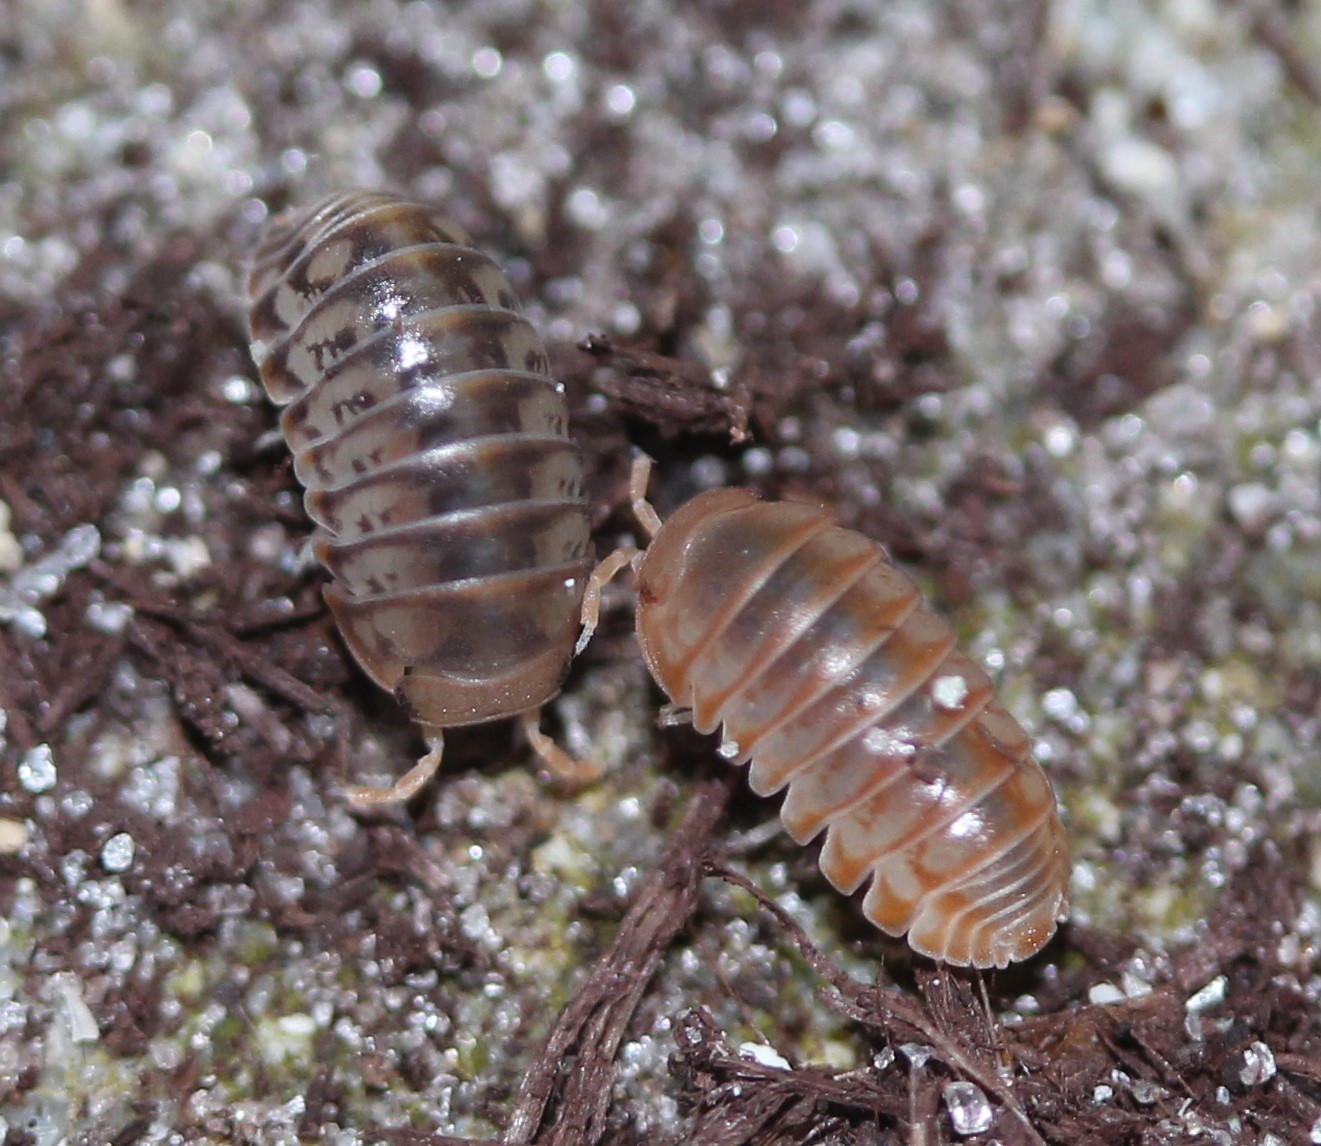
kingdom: Animalia
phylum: Arthropoda
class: Malacostraca
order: Isopoda
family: Armadillidae
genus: Venezillo
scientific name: Venezillo parvus
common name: Pillbug
